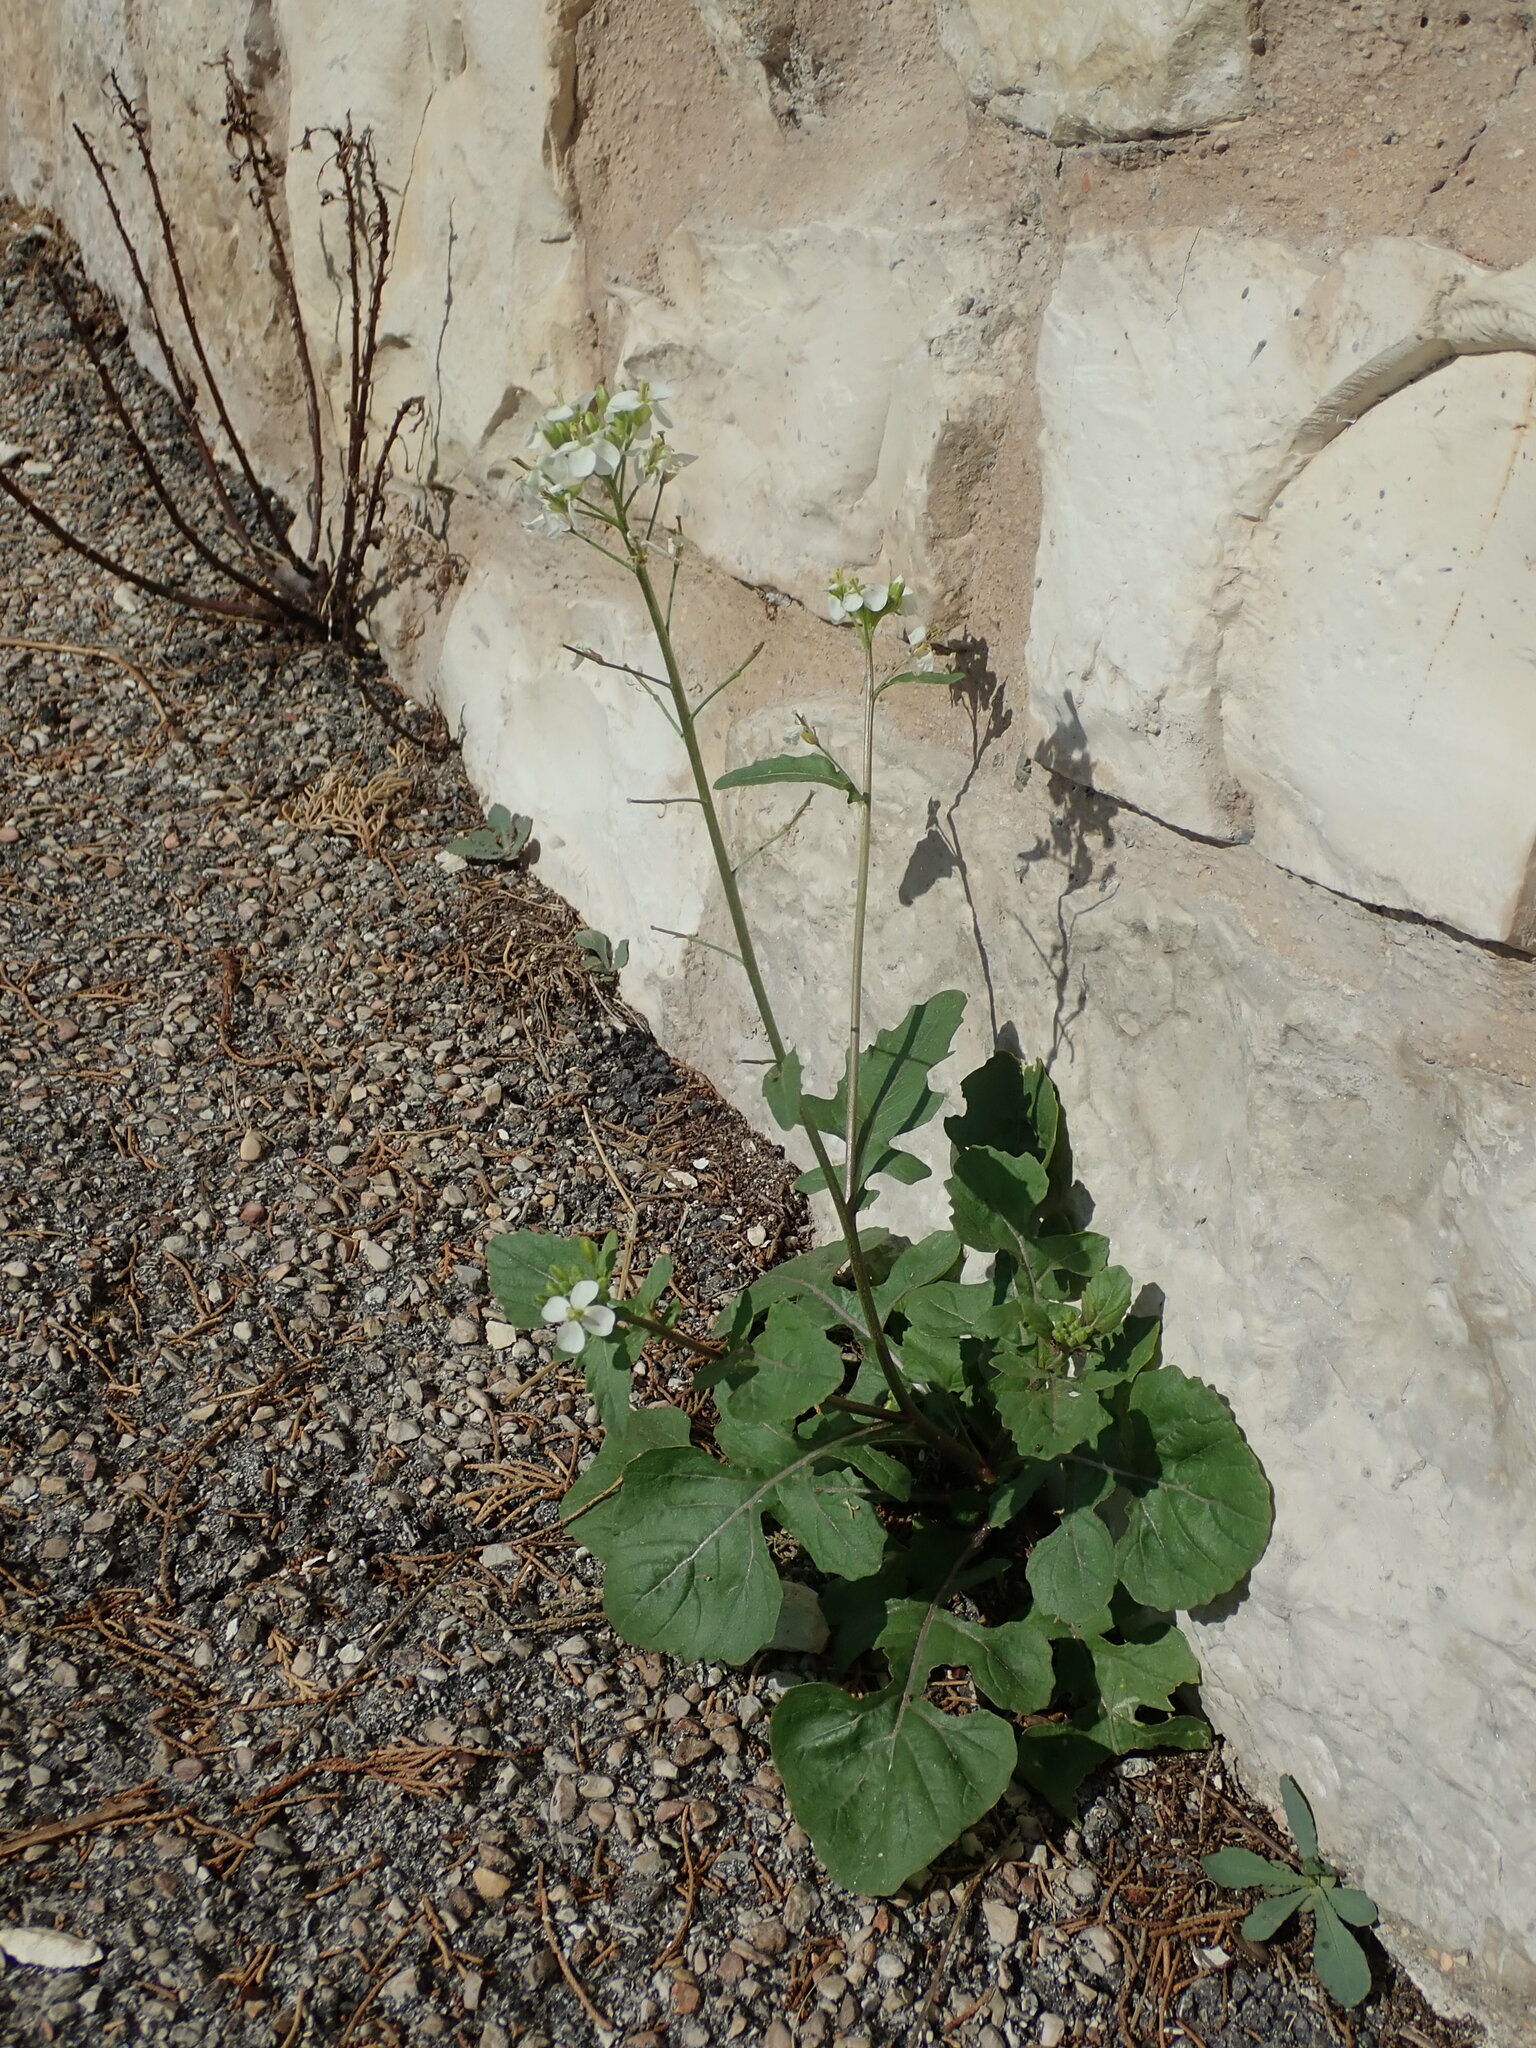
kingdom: Plantae
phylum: Tracheophyta
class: Magnoliopsida
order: Brassicales
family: Brassicaceae
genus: Diplotaxis
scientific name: Diplotaxis erucoides
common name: White rocket
